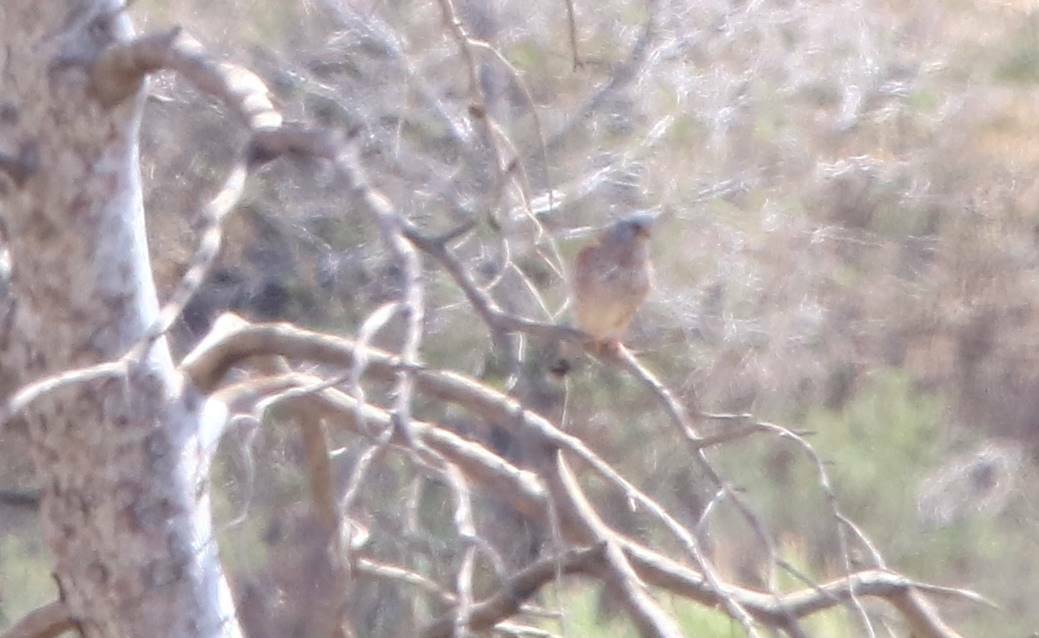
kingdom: Animalia
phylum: Chordata
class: Aves
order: Falconiformes
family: Falconidae
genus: Falco
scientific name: Falco tinnunculus
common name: Common kestrel
